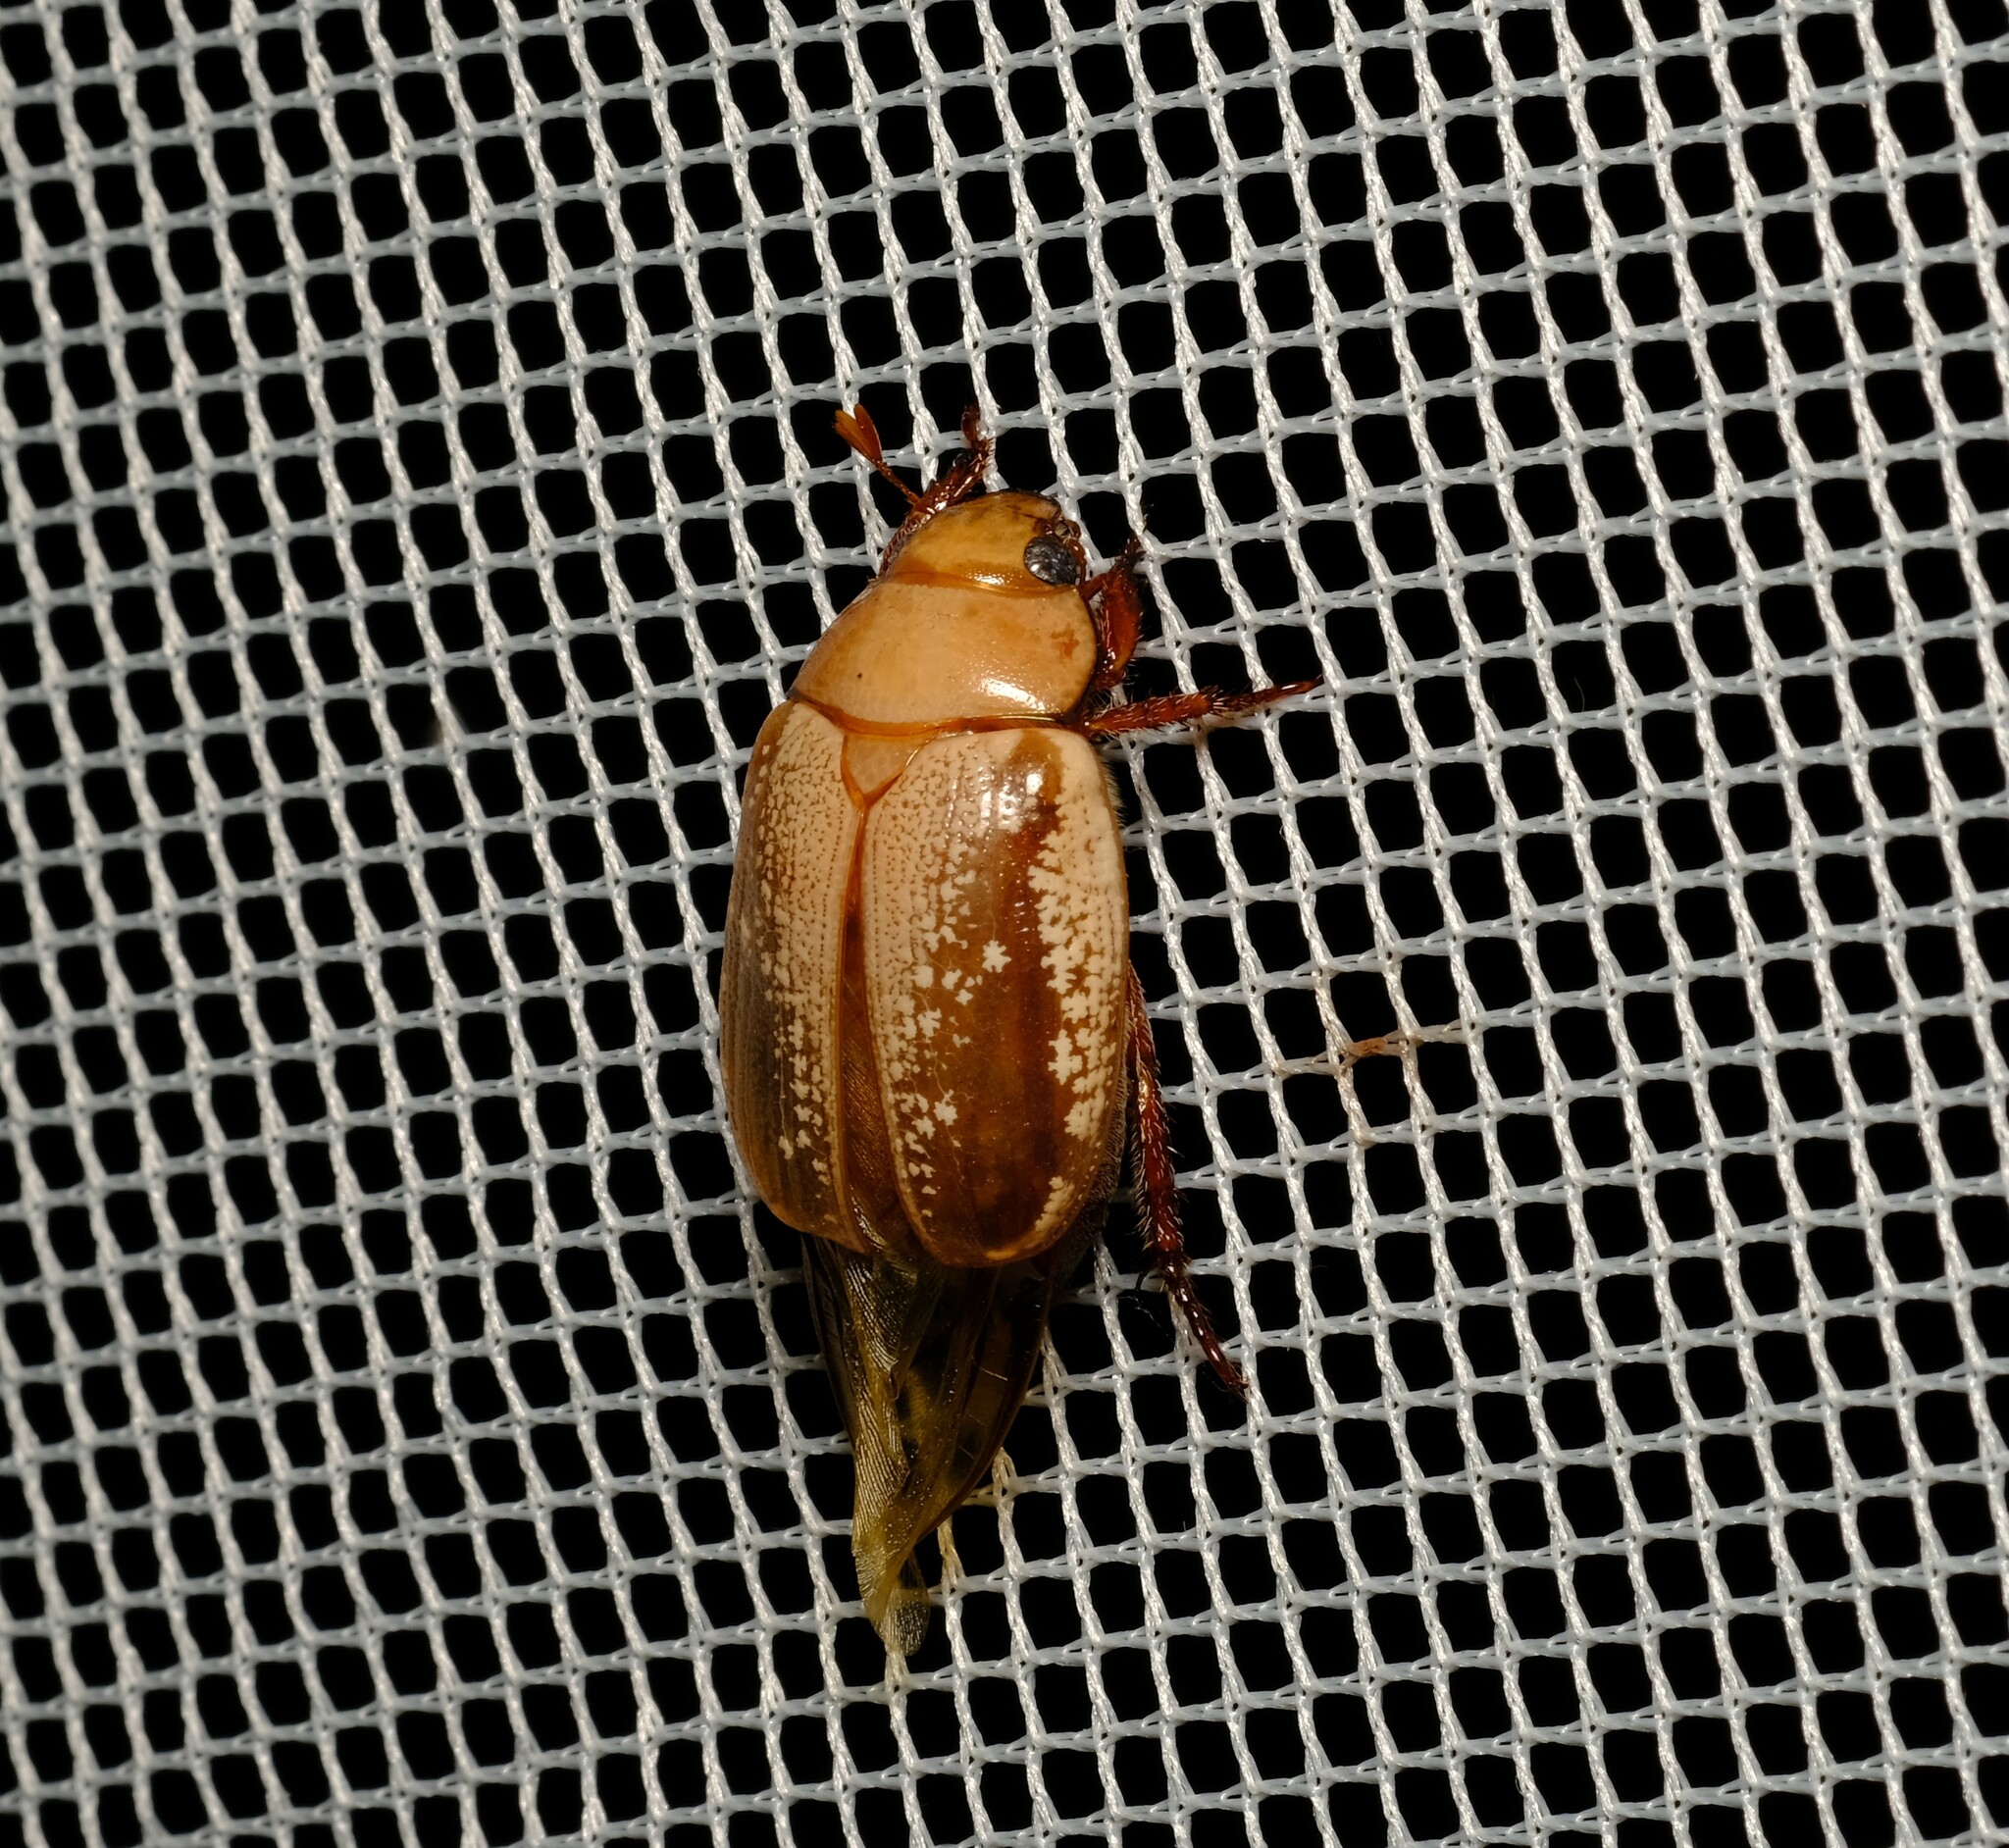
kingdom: Animalia
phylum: Arthropoda
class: Insecta
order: Coleoptera
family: Scarabaeidae
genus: Anoplognathus
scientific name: Anoplognathus concolor
